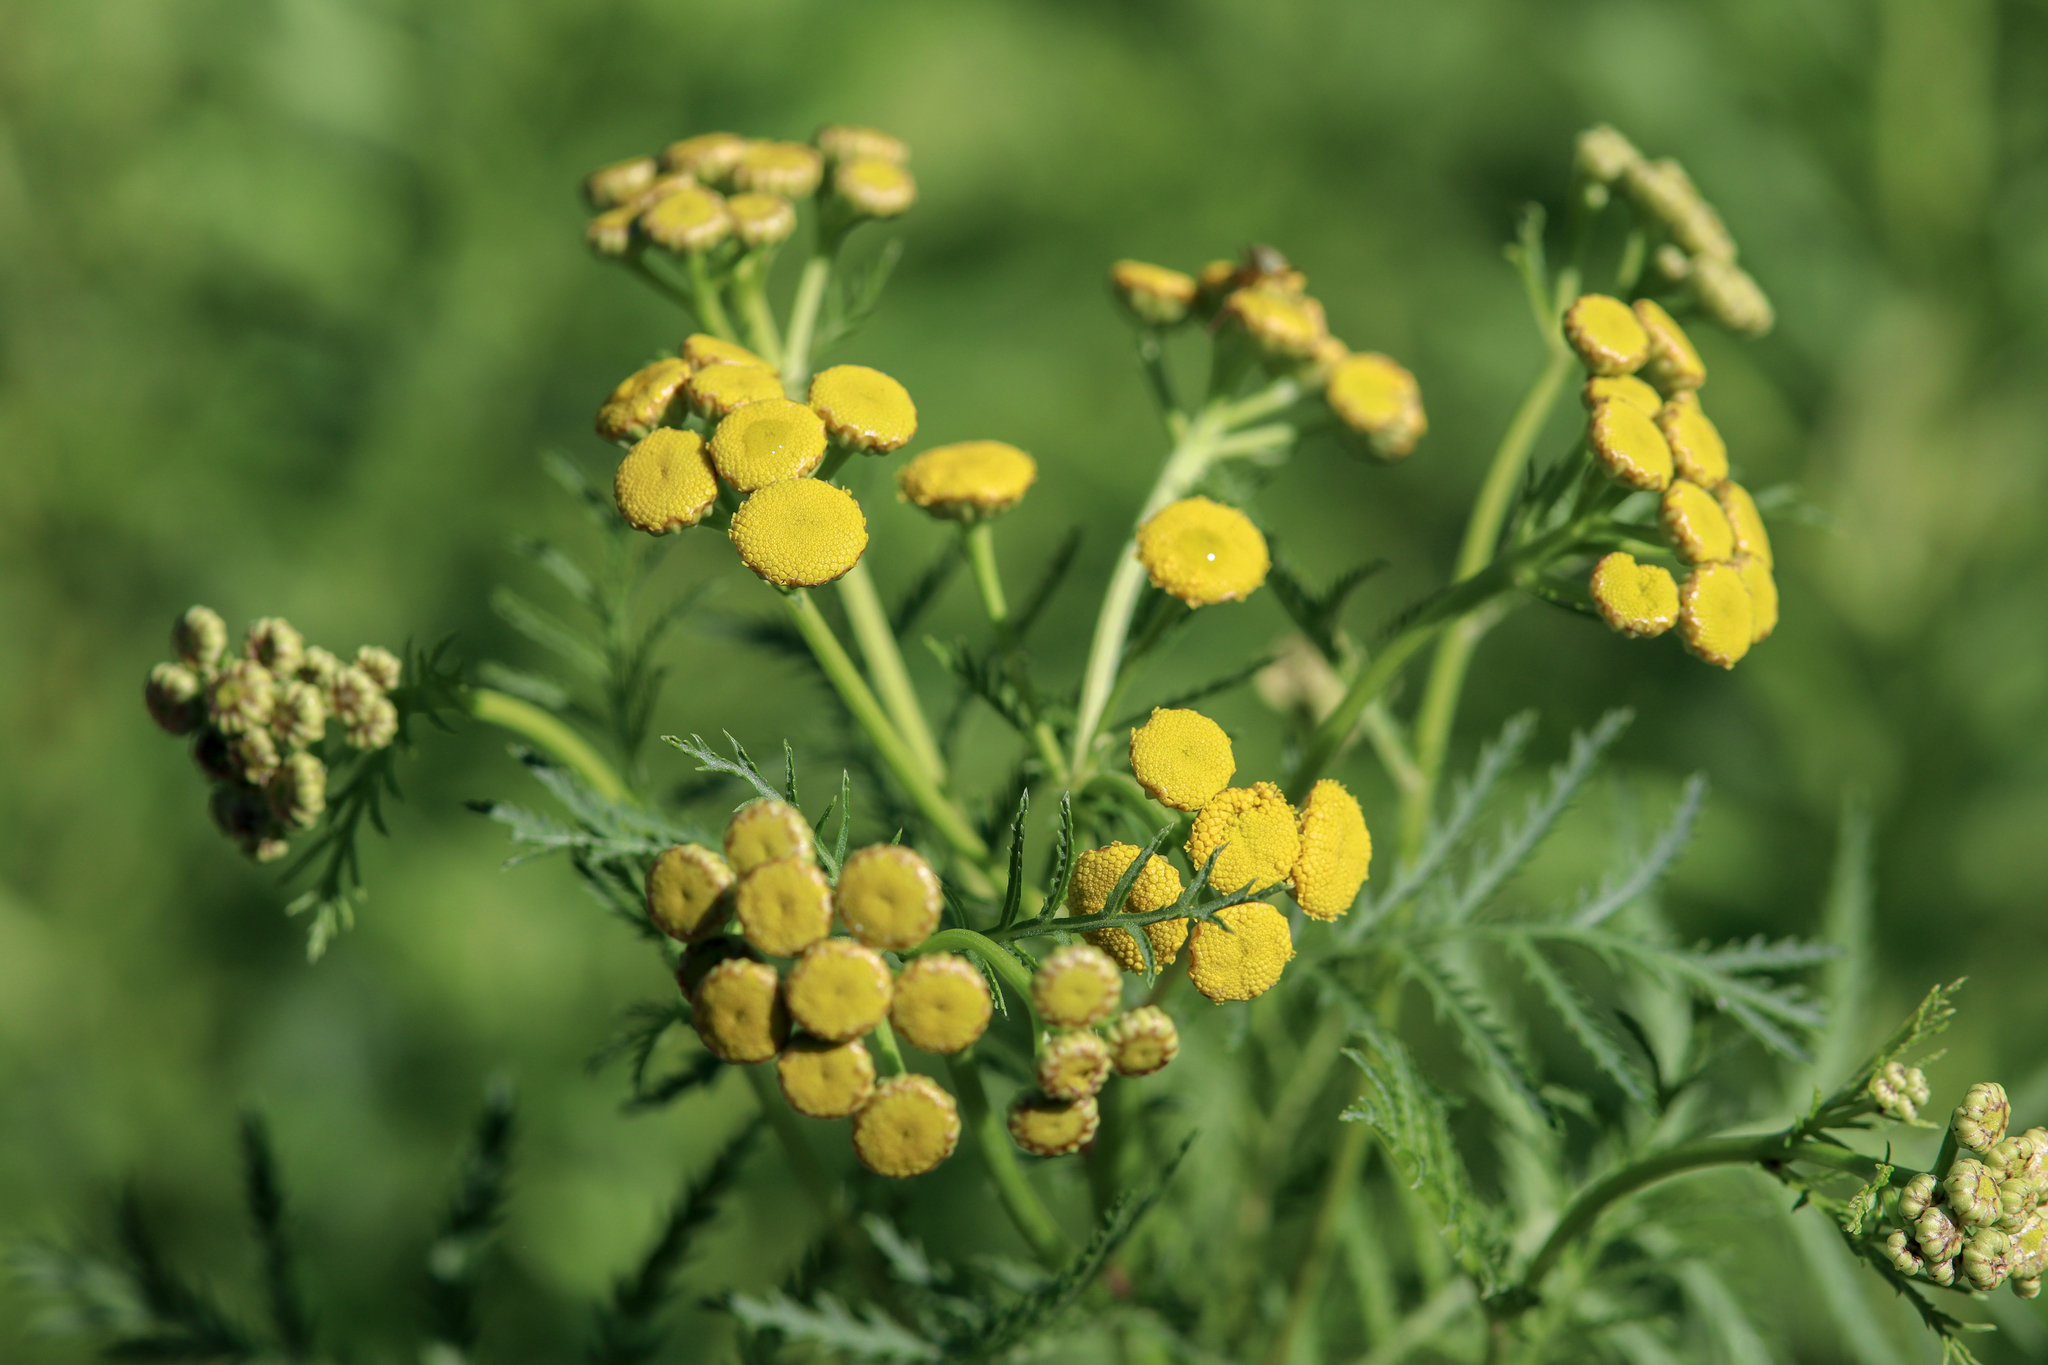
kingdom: Plantae
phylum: Tracheophyta
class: Magnoliopsida
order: Asterales
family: Asteraceae
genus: Tanacetum
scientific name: Tanacetum vulgare
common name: Common tansy
